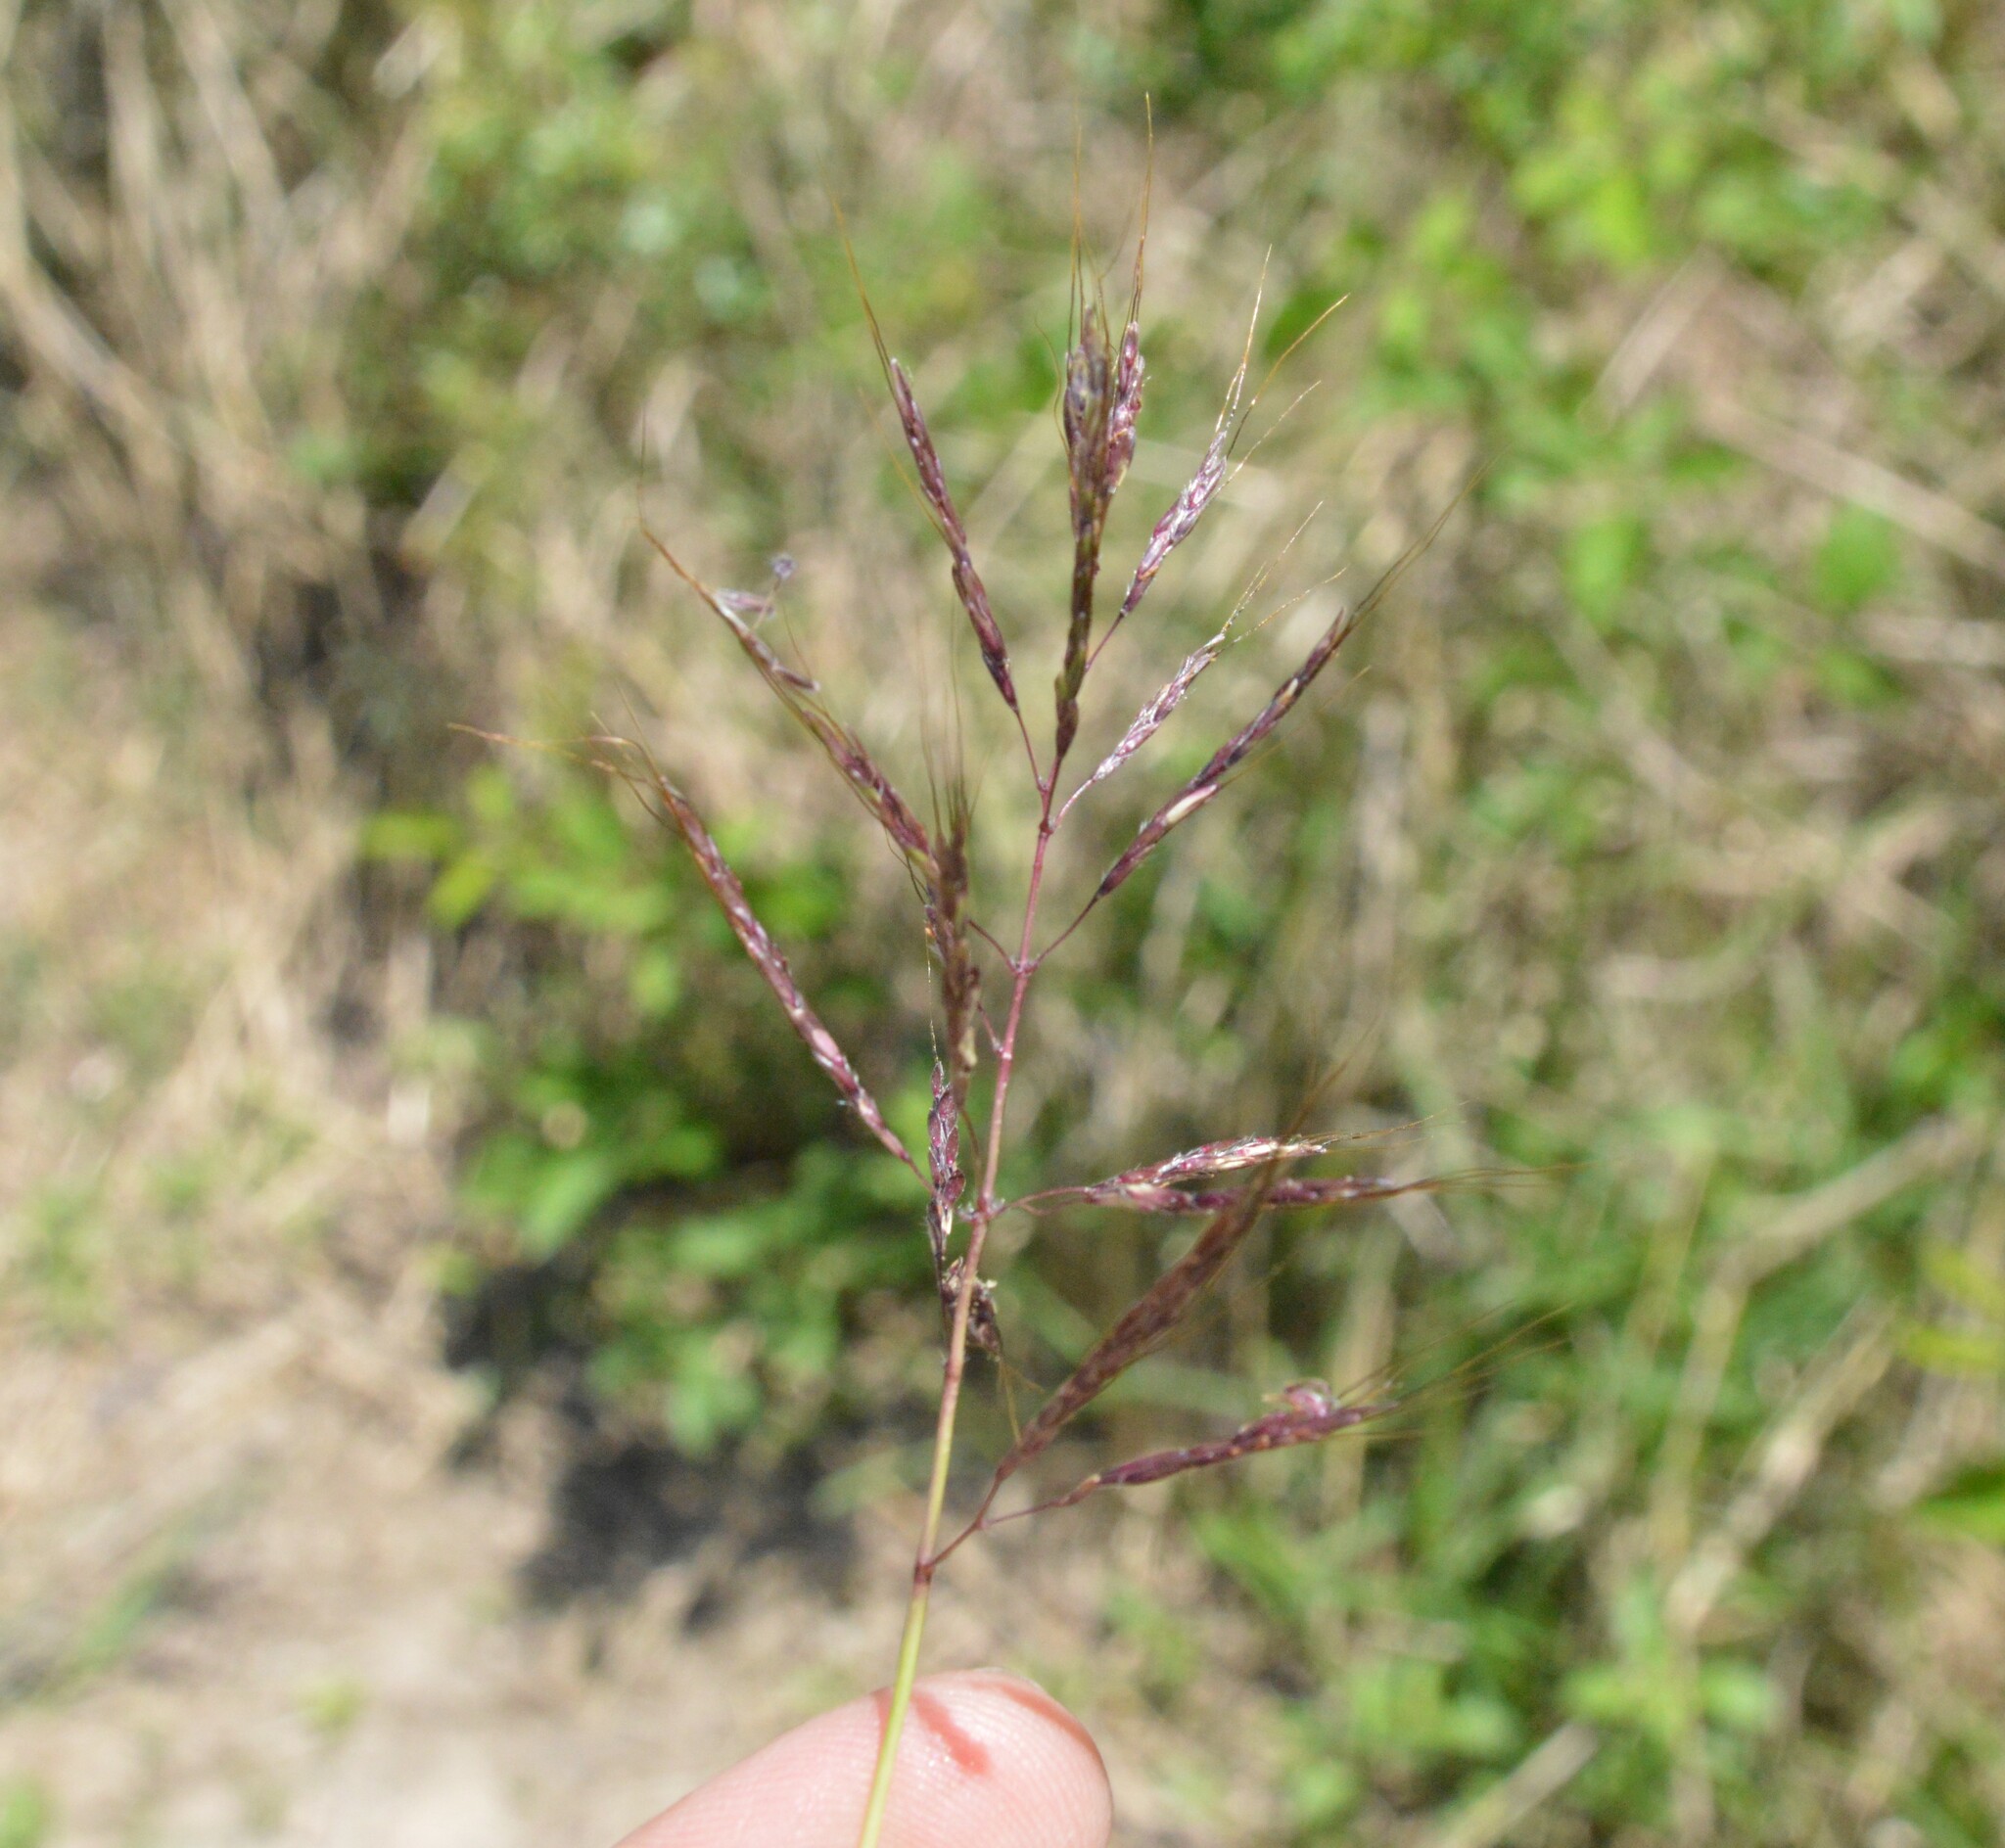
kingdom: Plantae
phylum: Tracheophyta
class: Liliopsida
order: Poales
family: Poaceae
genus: Bothriochloa
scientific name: Bothriochloa bladhii
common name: Caucasian bluestem
